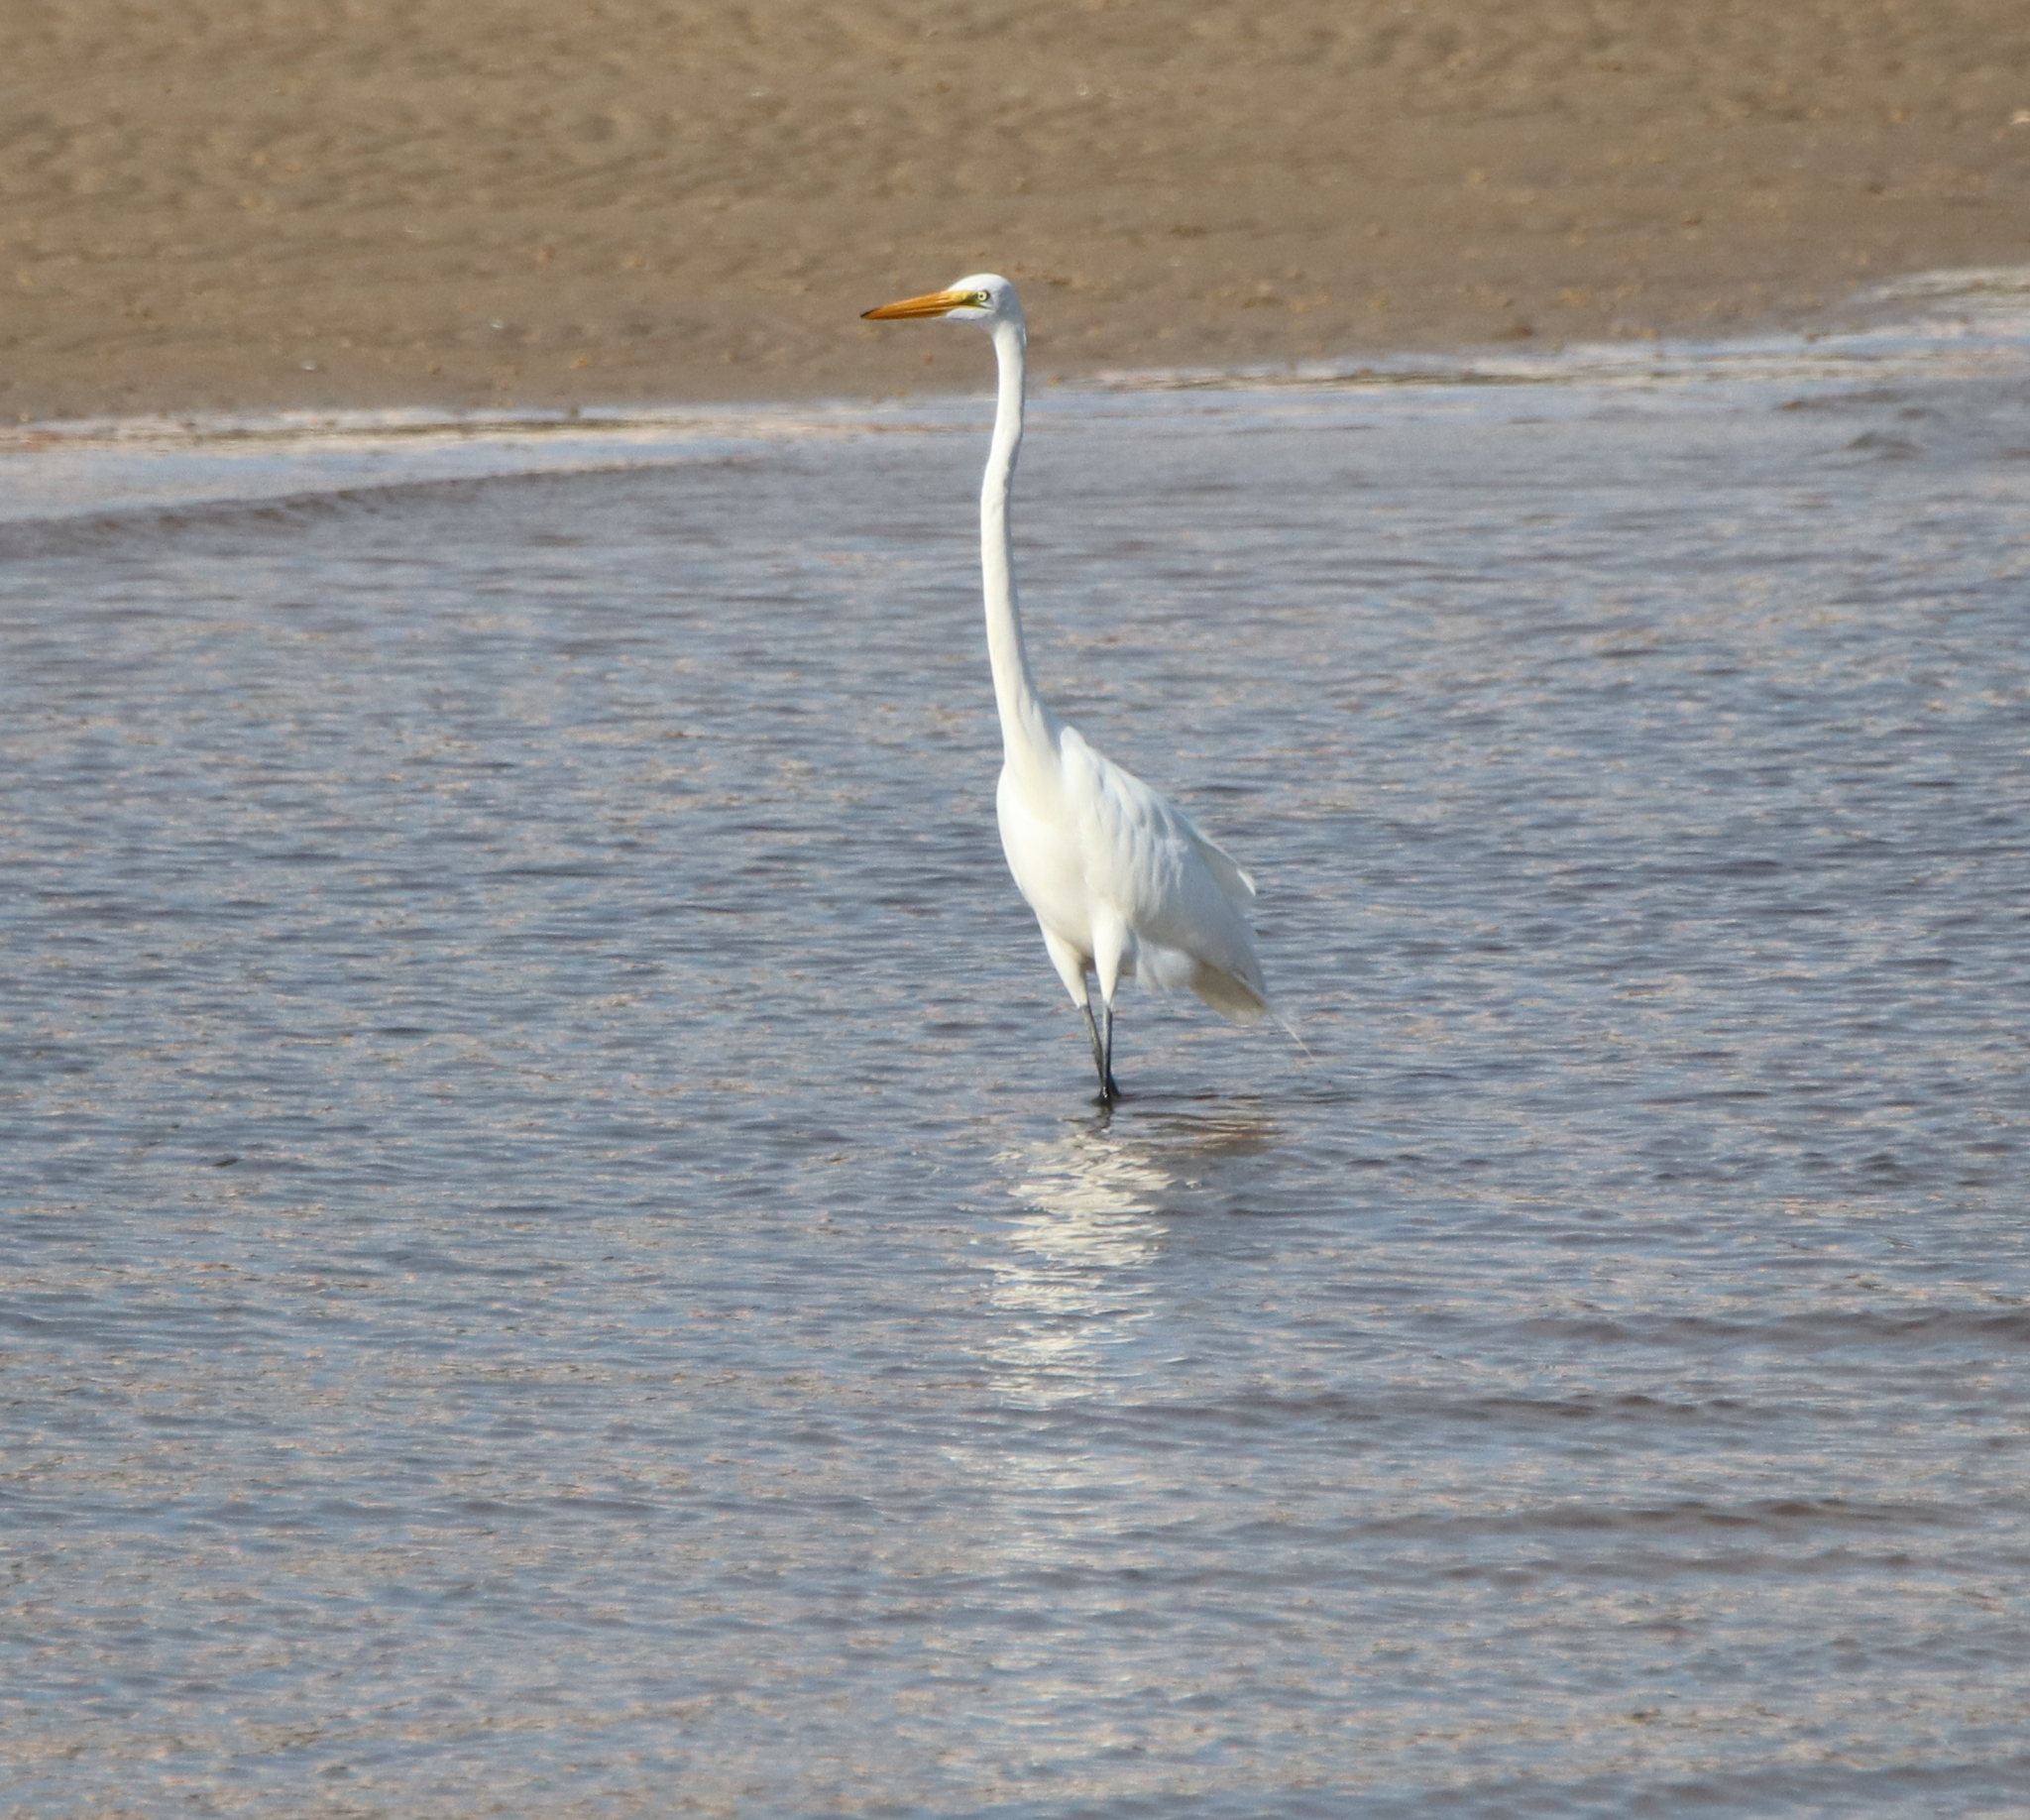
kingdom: Animalia
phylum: Chordata
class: Aves
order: Pelecaniformes
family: Ardeidae
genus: Ardea
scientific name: Ardea alba
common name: Great egret
